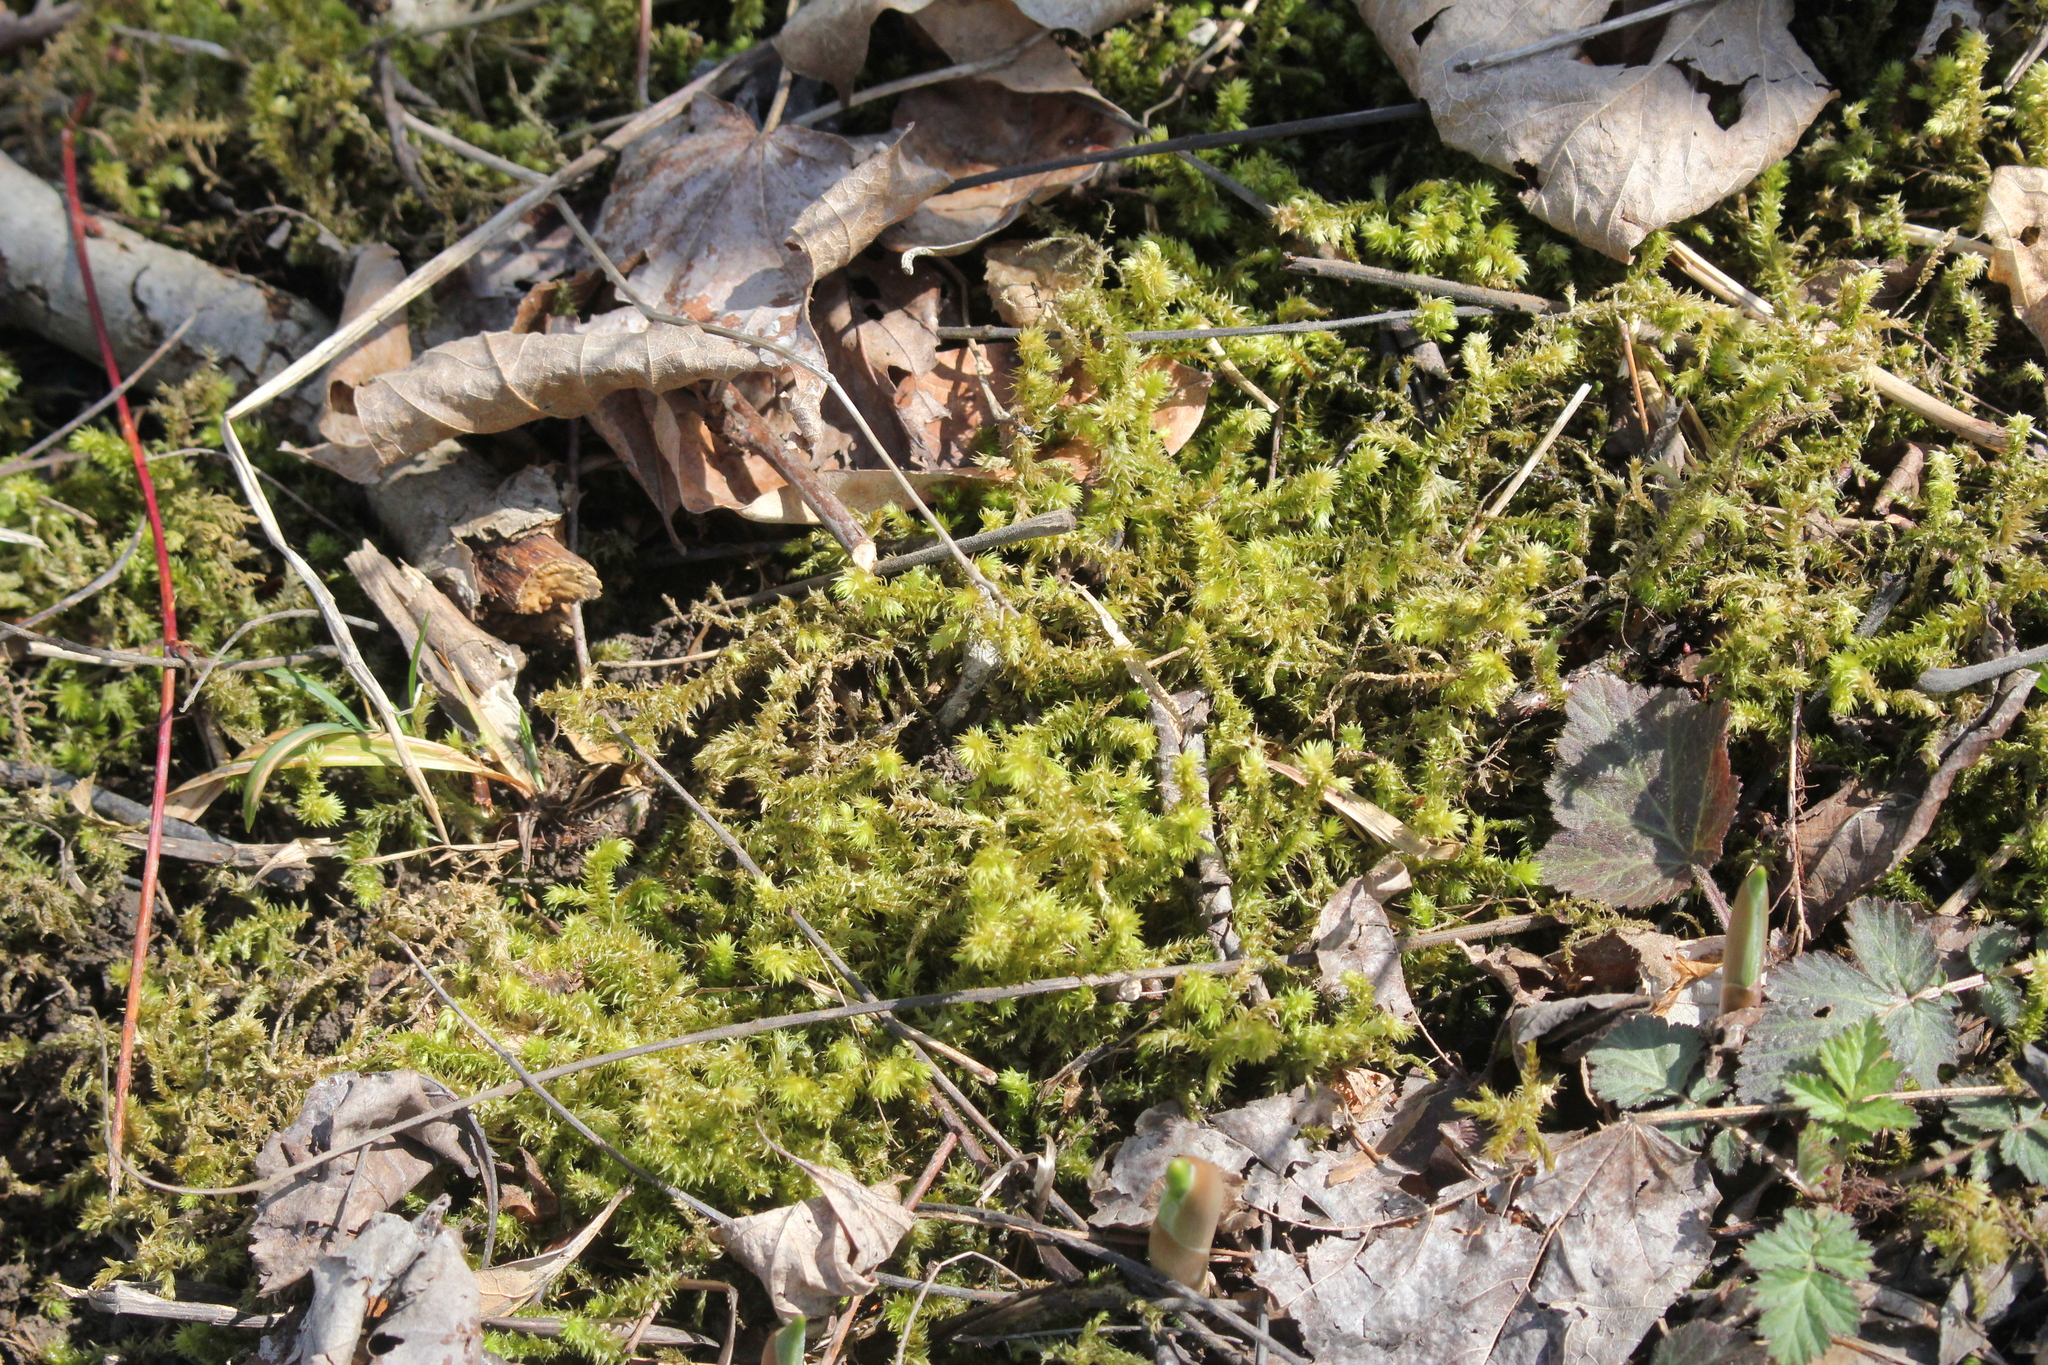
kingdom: Plantae
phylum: Bryophyta
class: Bryopsida
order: Hypnales
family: Hylocomiaceae
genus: Hylocomiadelphus
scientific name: Hylocomiadelphus triquetrus
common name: Rough goose neck moss
